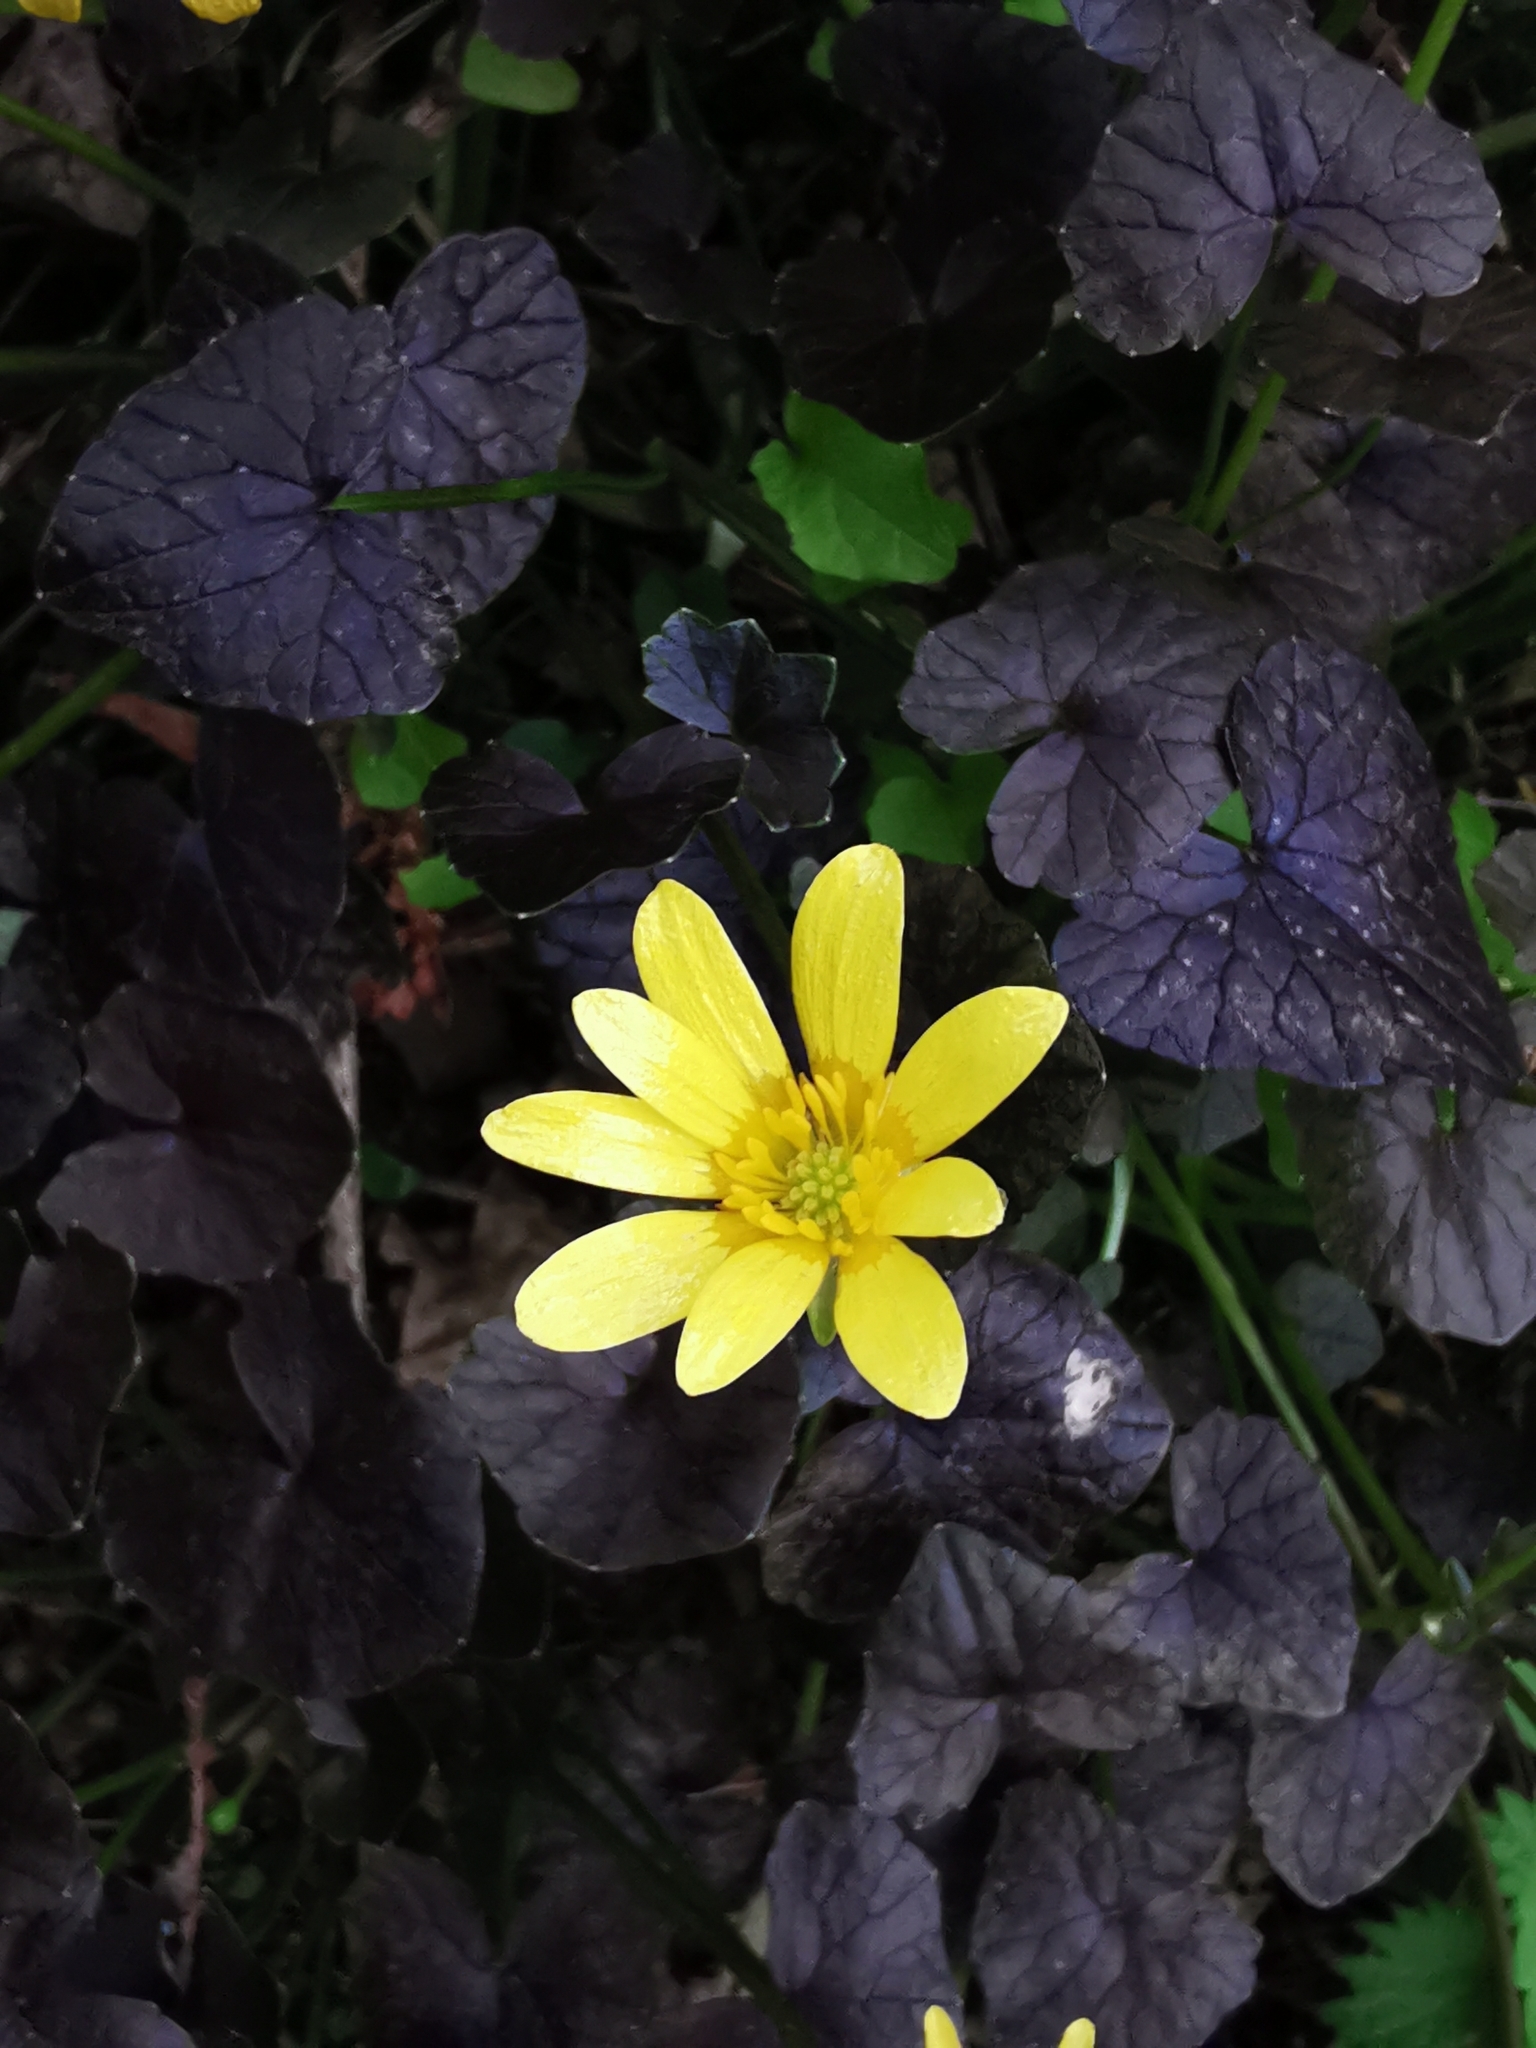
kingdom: Plantae
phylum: Tracheophyta
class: Magnoliopsida
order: Ranunculales
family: Ranunculaceae
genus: Ficaria
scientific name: Ficaria verna
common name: Lesser celandine
